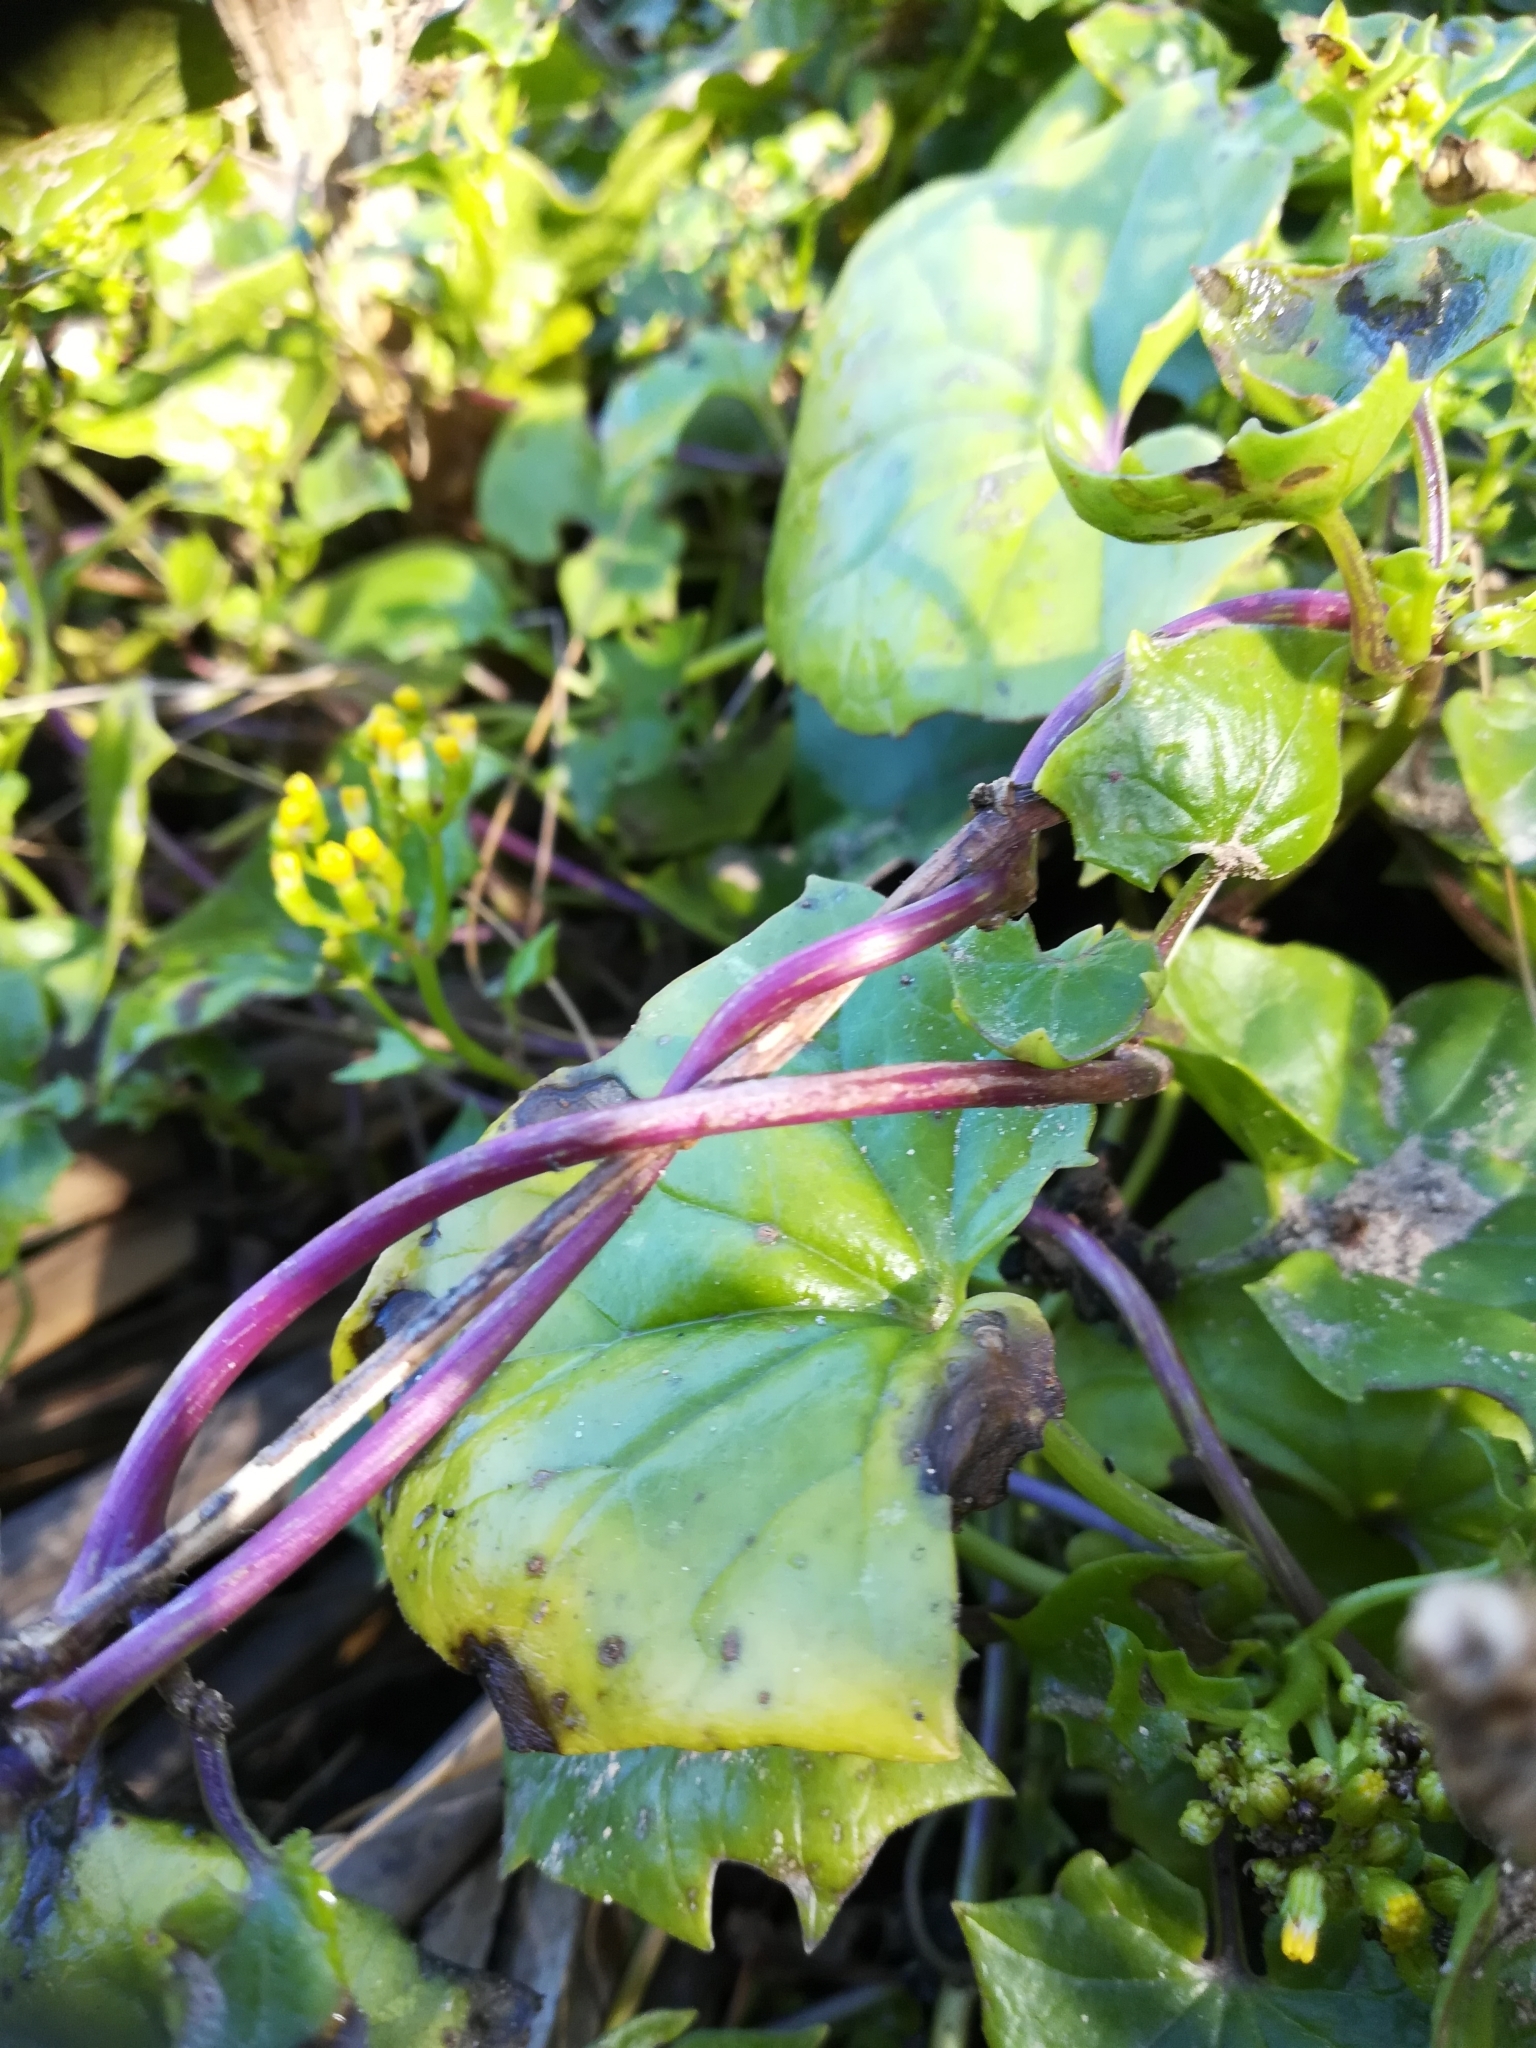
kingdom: Plantae
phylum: Tracheophyta
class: Magnoliopsida
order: Asterales
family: Asteraceae
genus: Senecio
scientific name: Senecio tamoides
